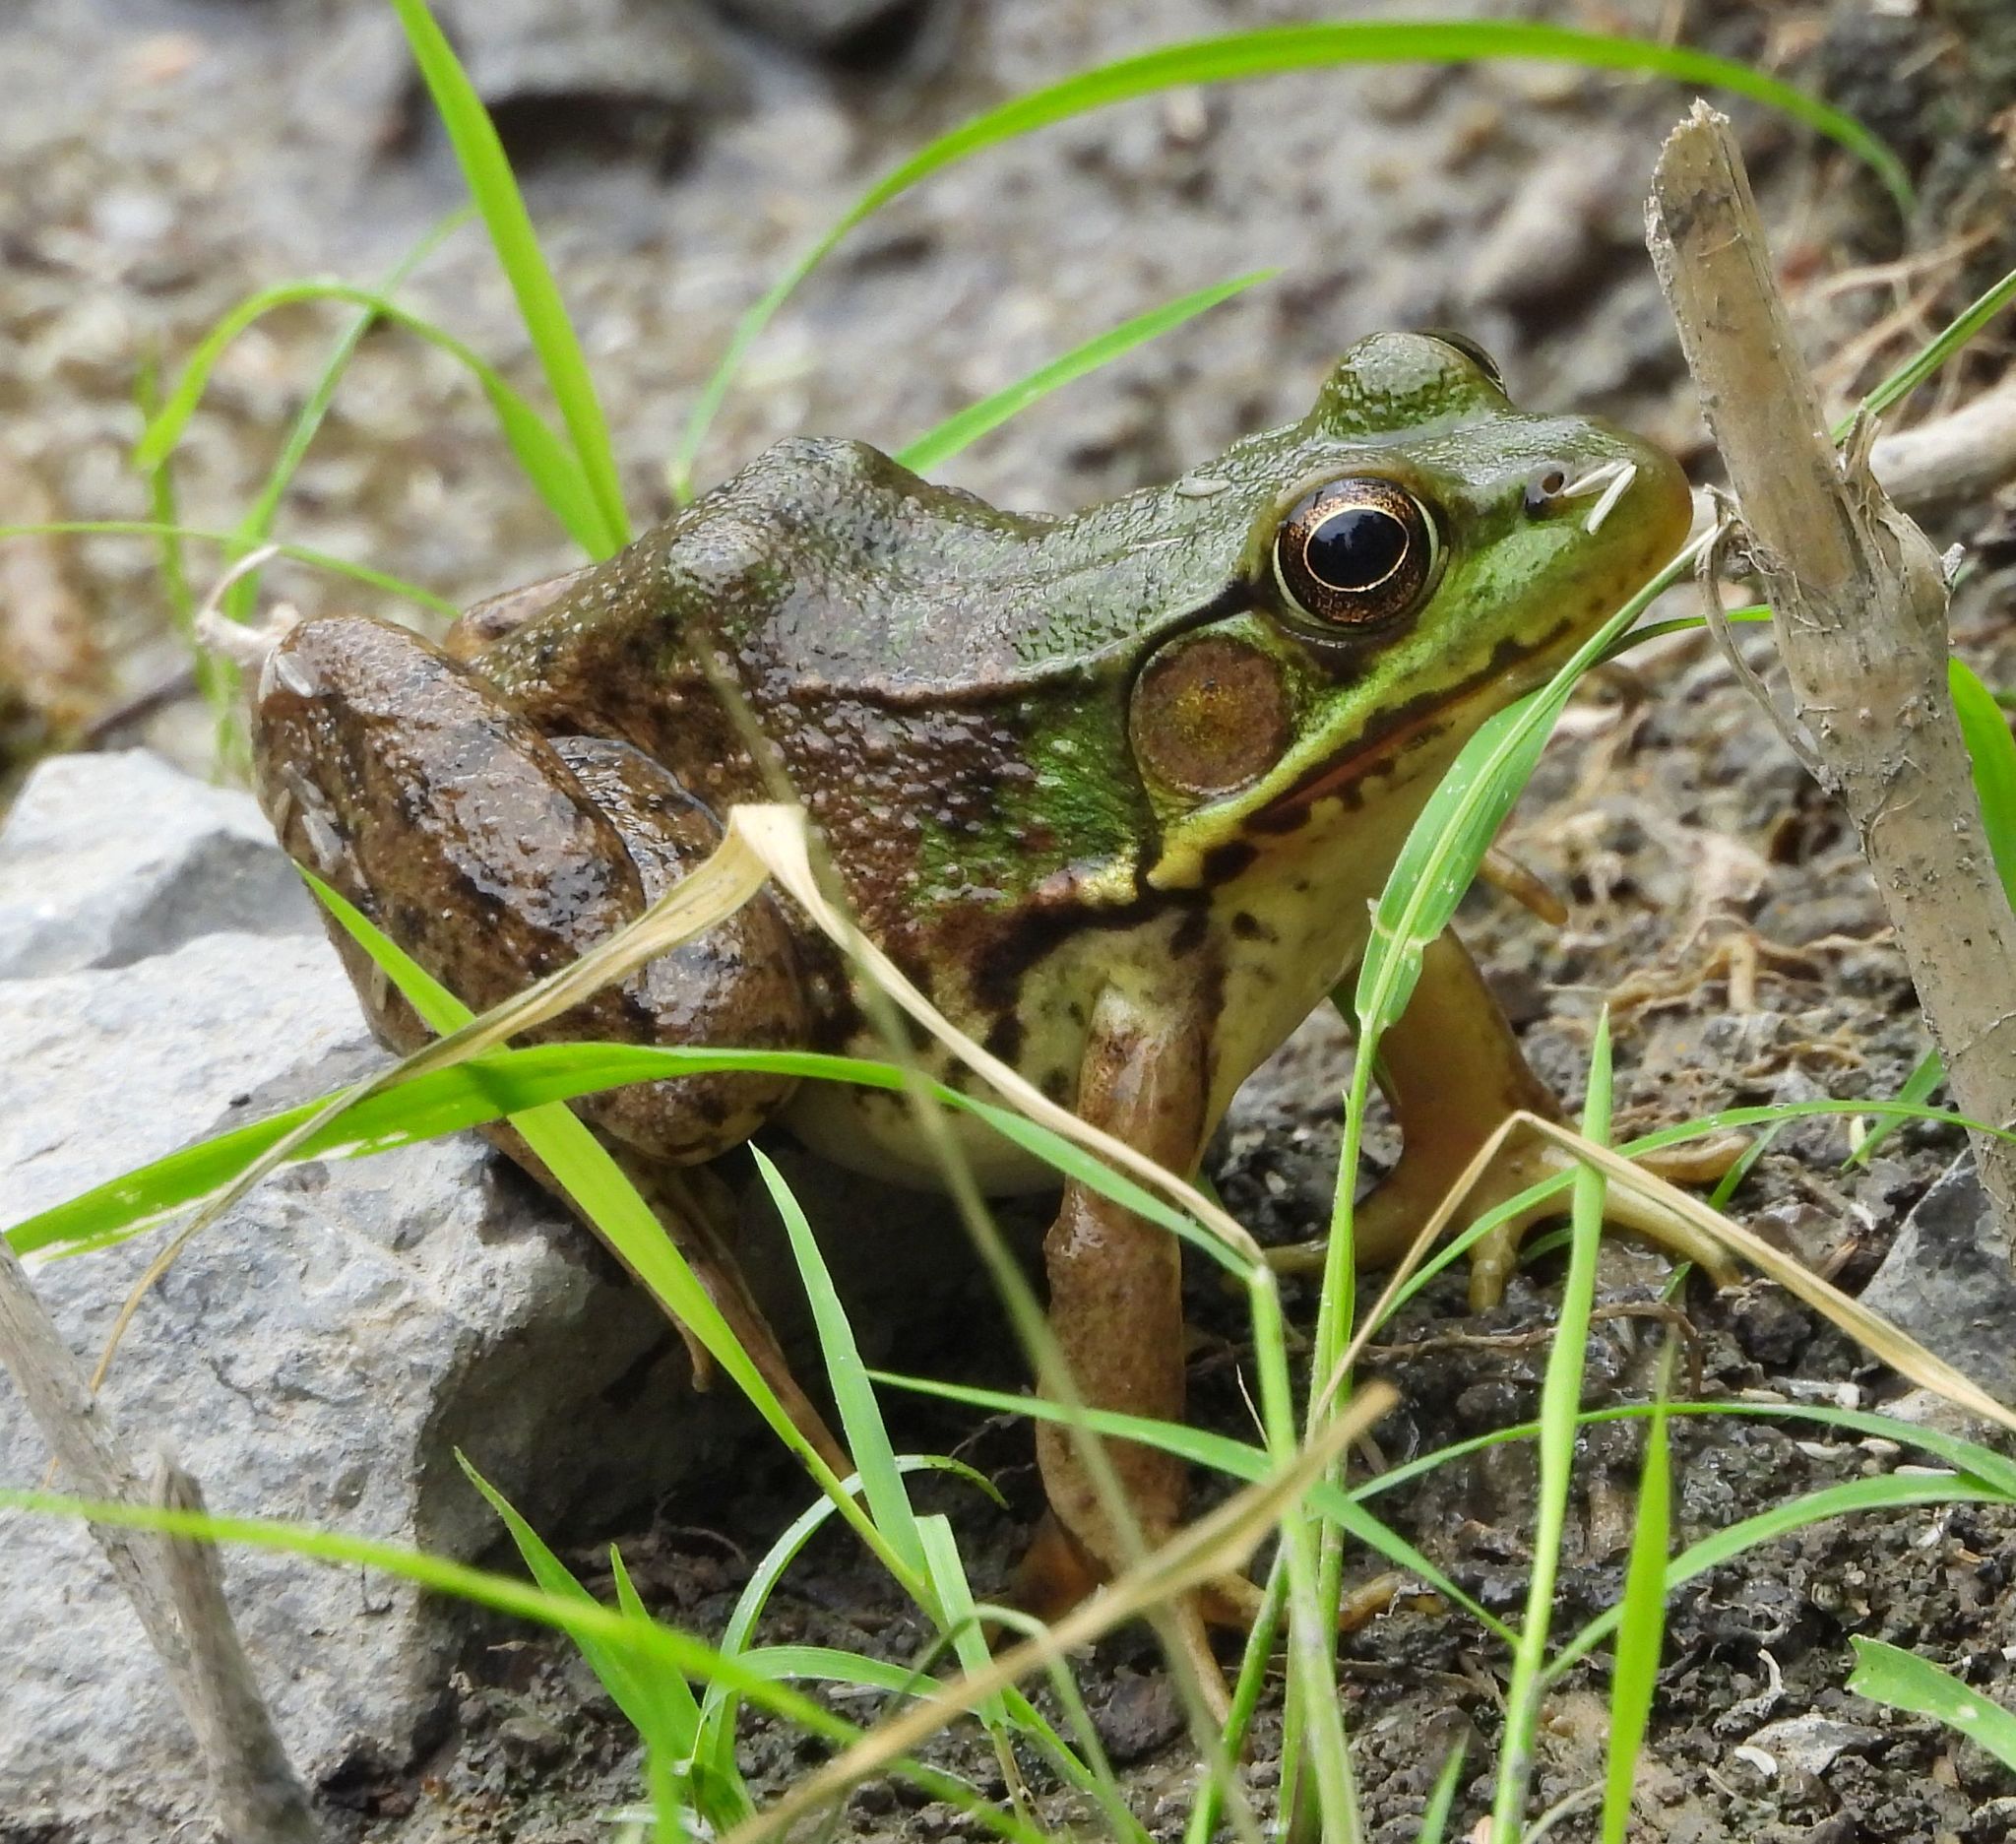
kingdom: Animalia
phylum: Chordata
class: Amphibia
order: Anura
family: Ranidae
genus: Lithobates
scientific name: Lithobates clamitans
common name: Green frog
